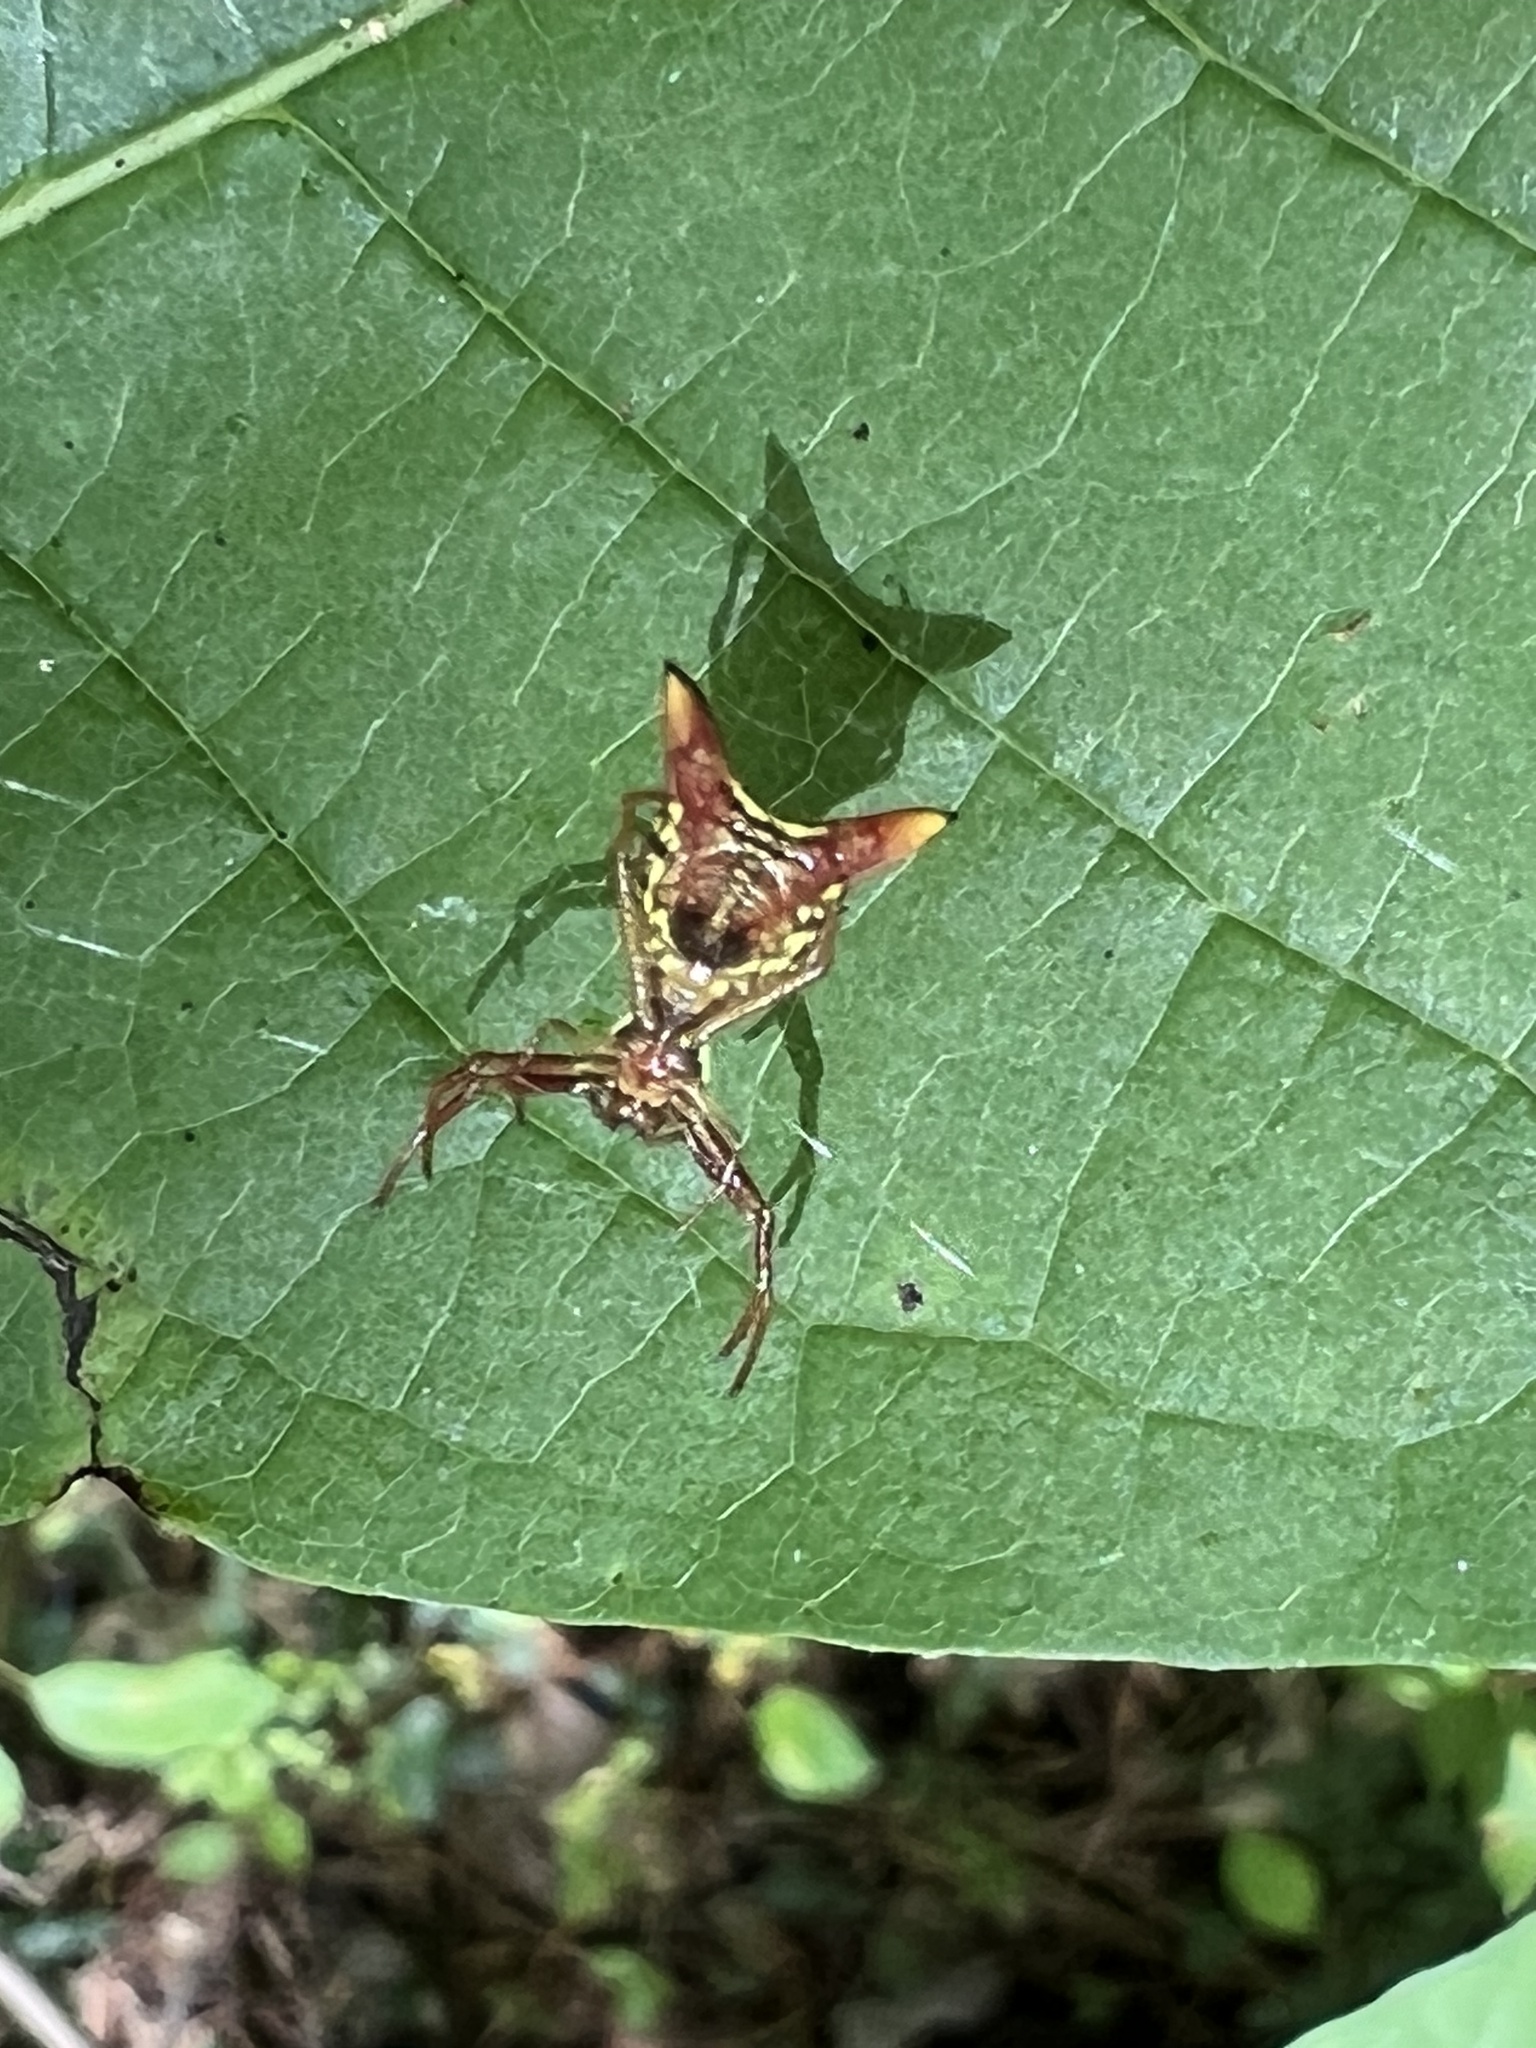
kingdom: Animalia
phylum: Arthropoda
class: Arachnida
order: Araneae
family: Araneidae
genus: Micrathena
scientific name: Micrathena sagittata
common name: Orb weavers
